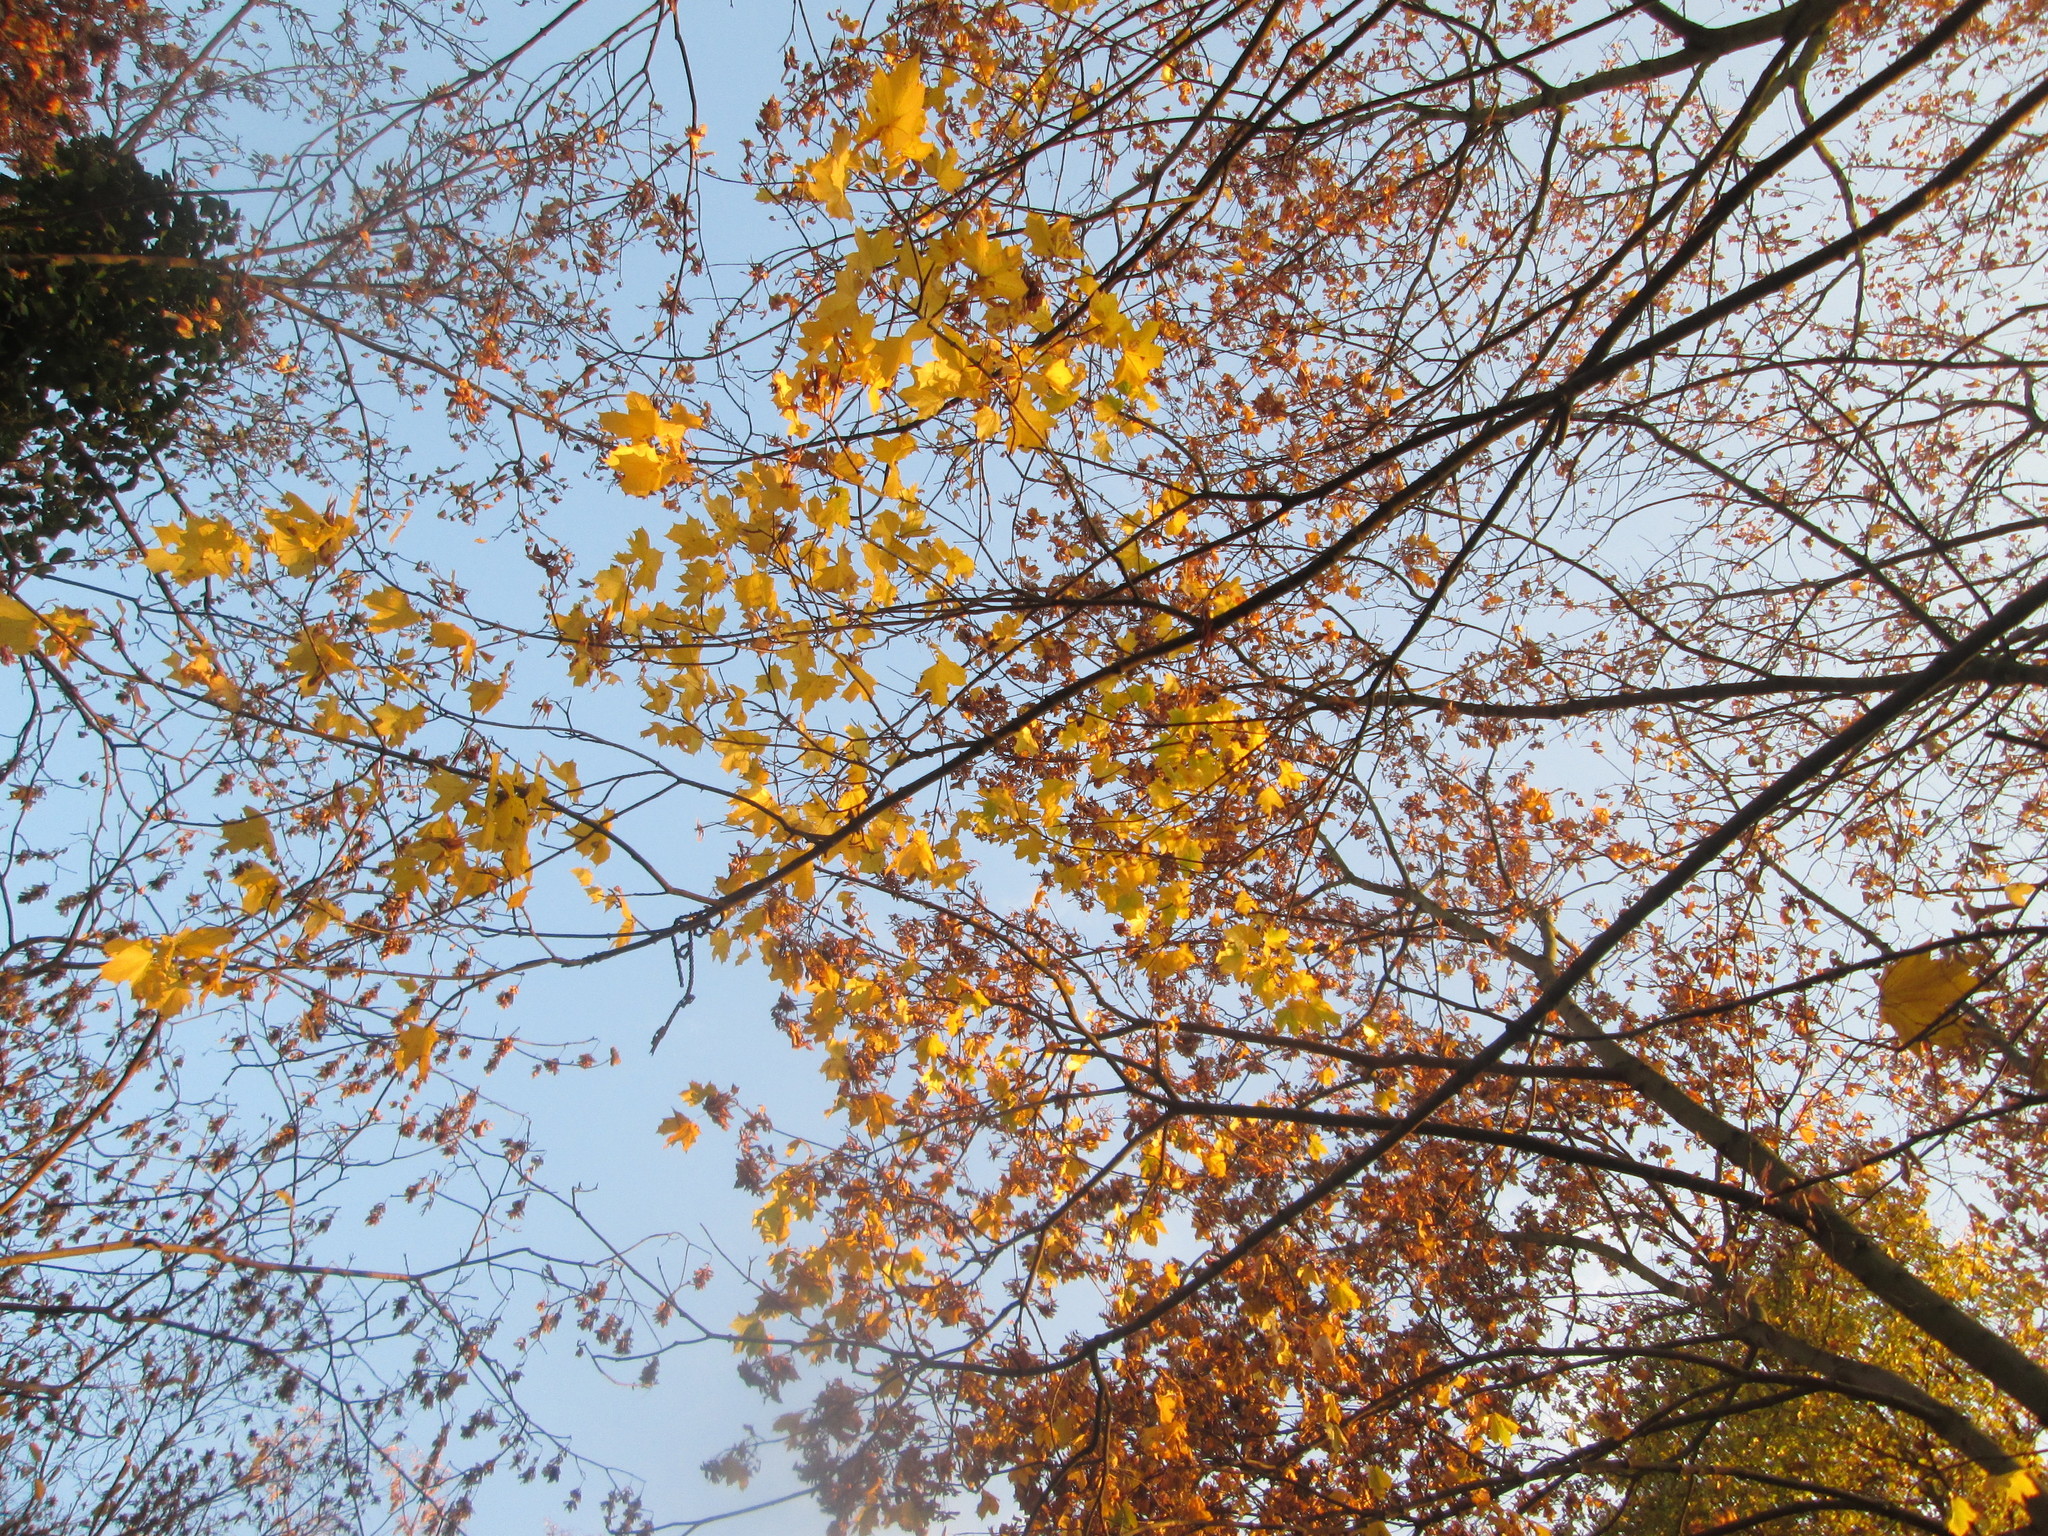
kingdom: Plantae
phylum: Tracheophyta
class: Magnoliopsida
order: Sapindales
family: Sapindaceae
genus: Acer
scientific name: Acer platanoides
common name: Norway maple
